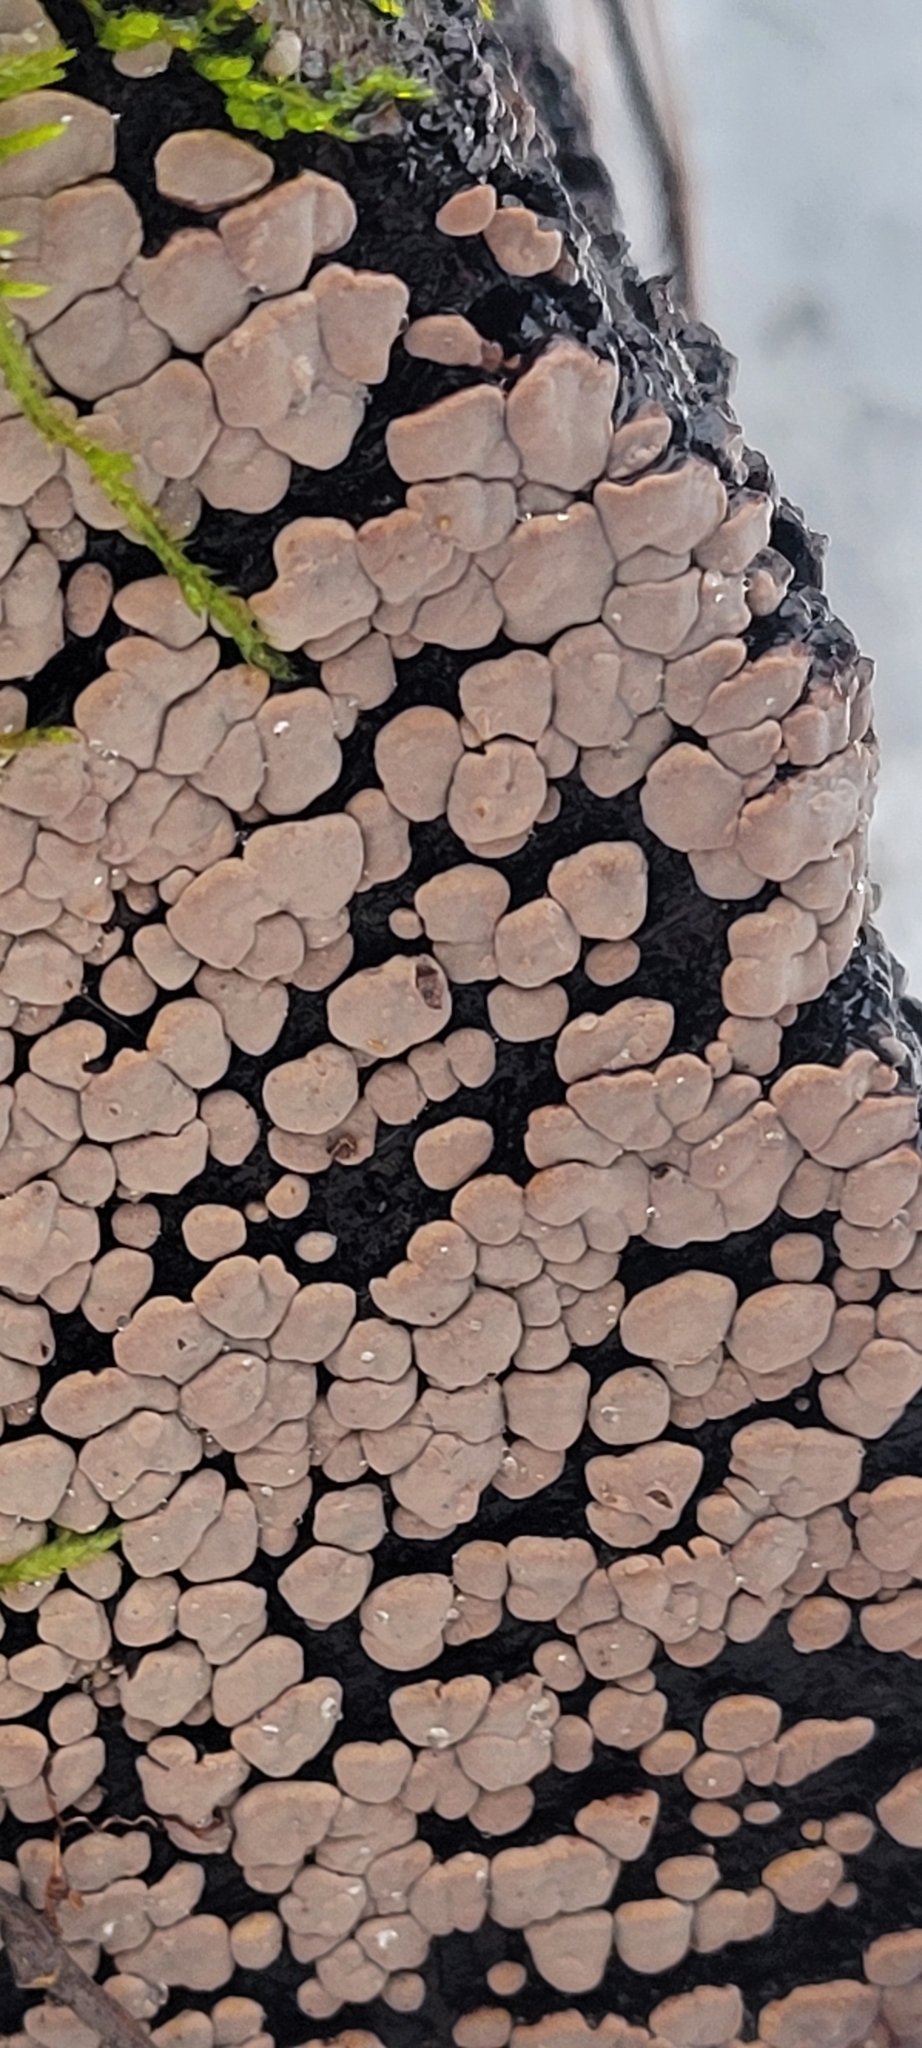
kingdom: Fungi
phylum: Basidiomycota
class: Agaricomycetes
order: Russulales
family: Stereaceae
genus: Xylobolus
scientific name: Xylobolus frustulatus
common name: Ceramic parchment
